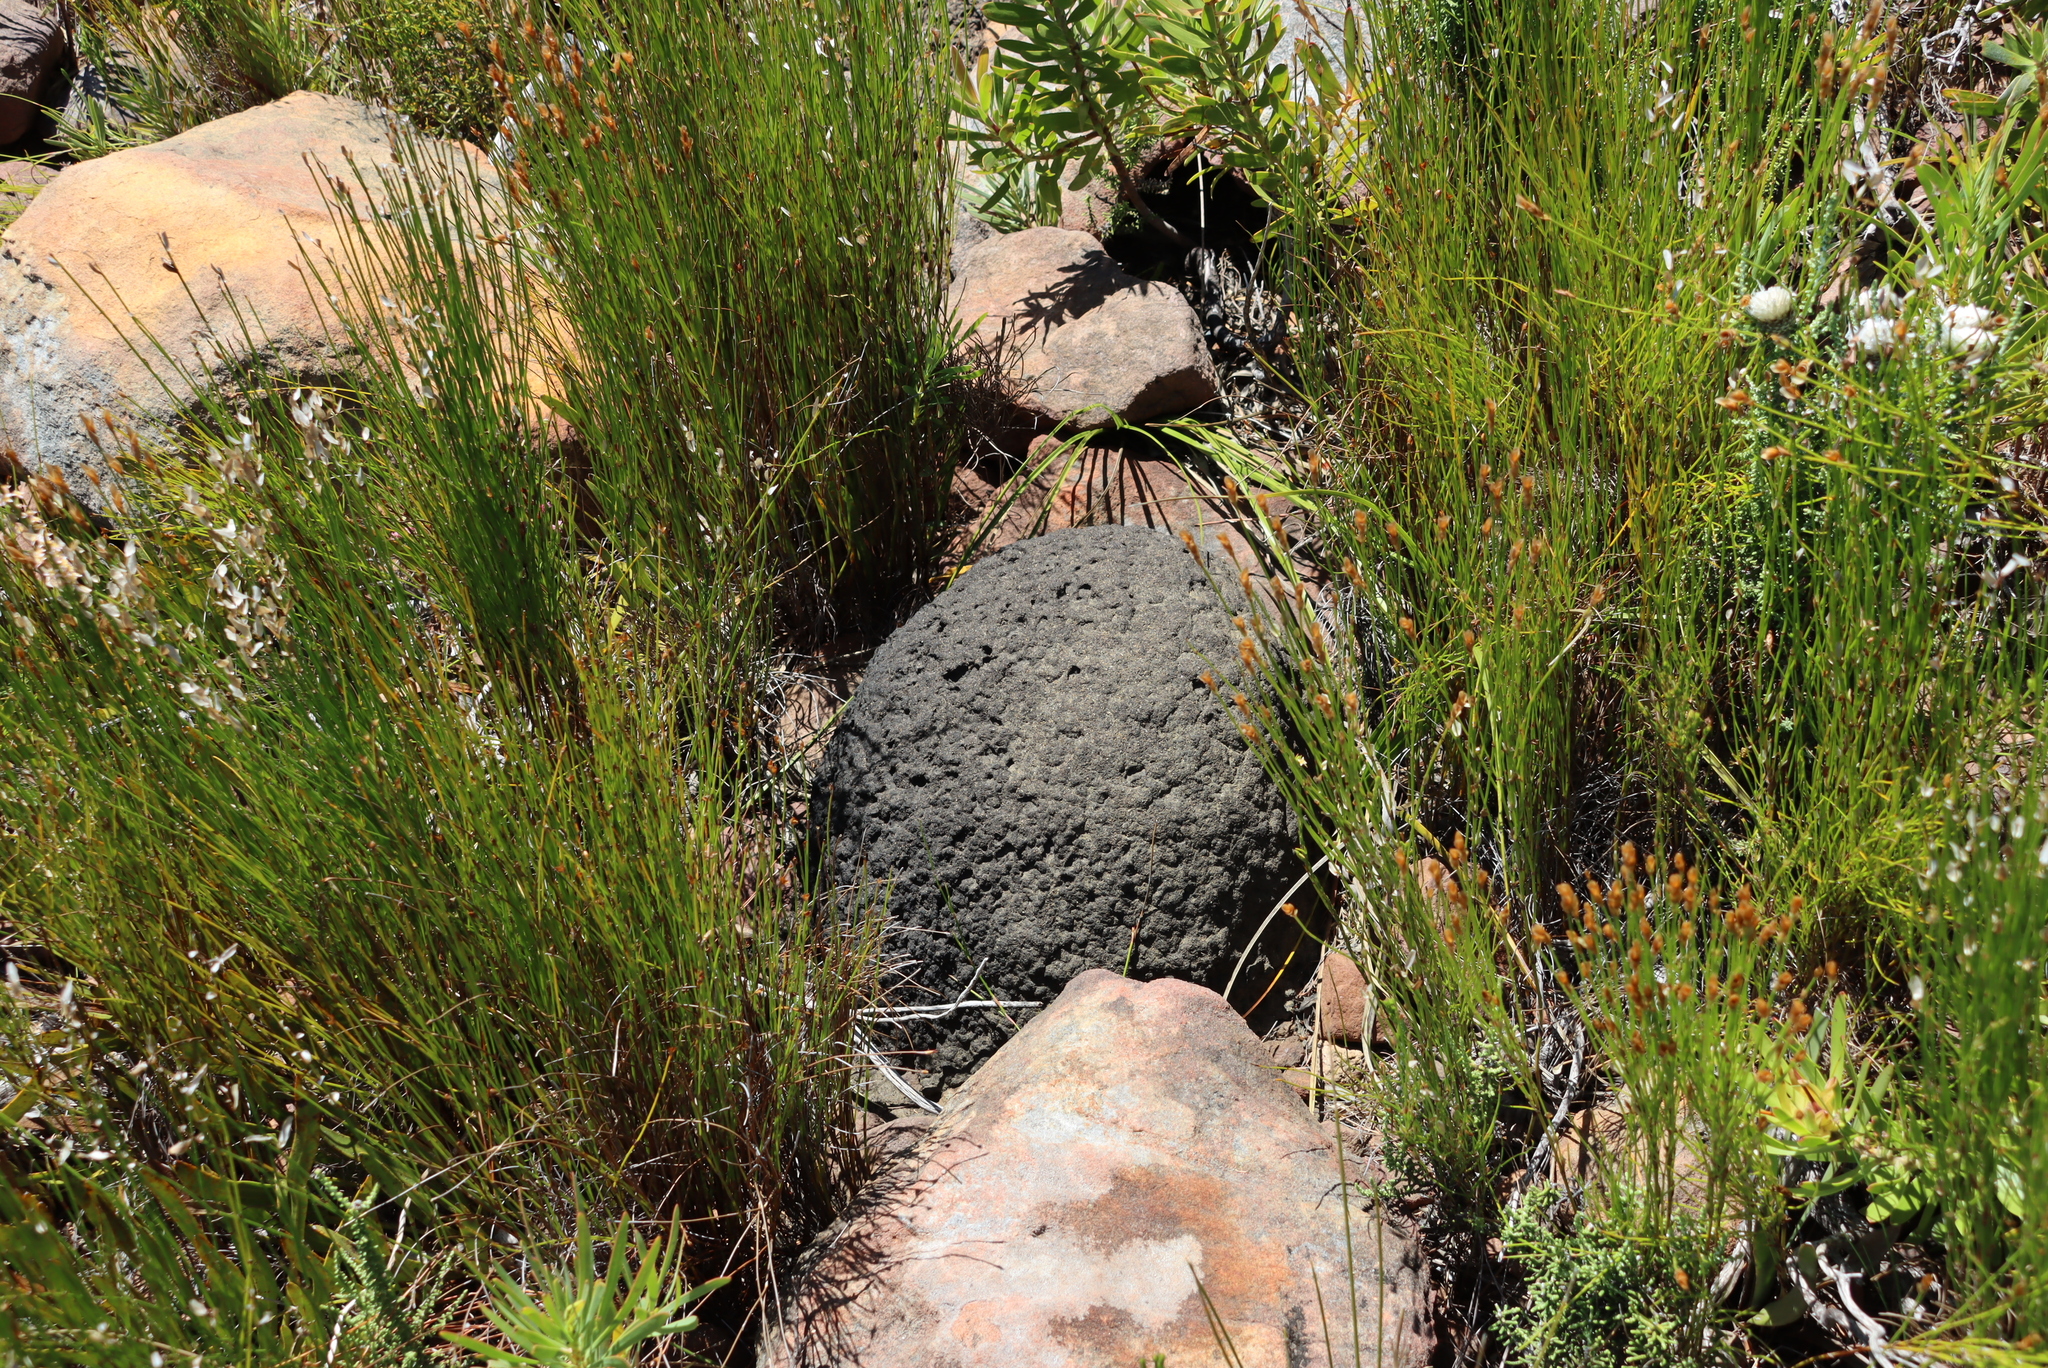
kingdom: Animalia
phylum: Arthropoda
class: Insecta
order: Blattodea
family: Termitidae
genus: Amitermes
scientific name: Amitermes hastatus
